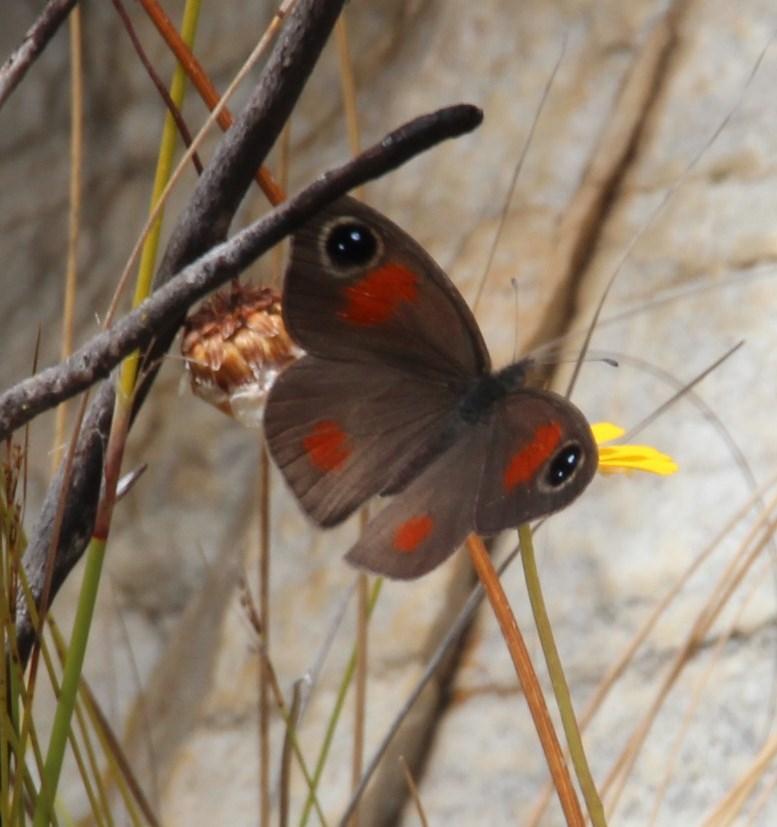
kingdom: Animalia
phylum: Arthropoda
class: Insecta
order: Lepidoptera
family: Nymphalidae
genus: Stygionympha
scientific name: Stygionympha vigilans
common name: Western hillside brown
